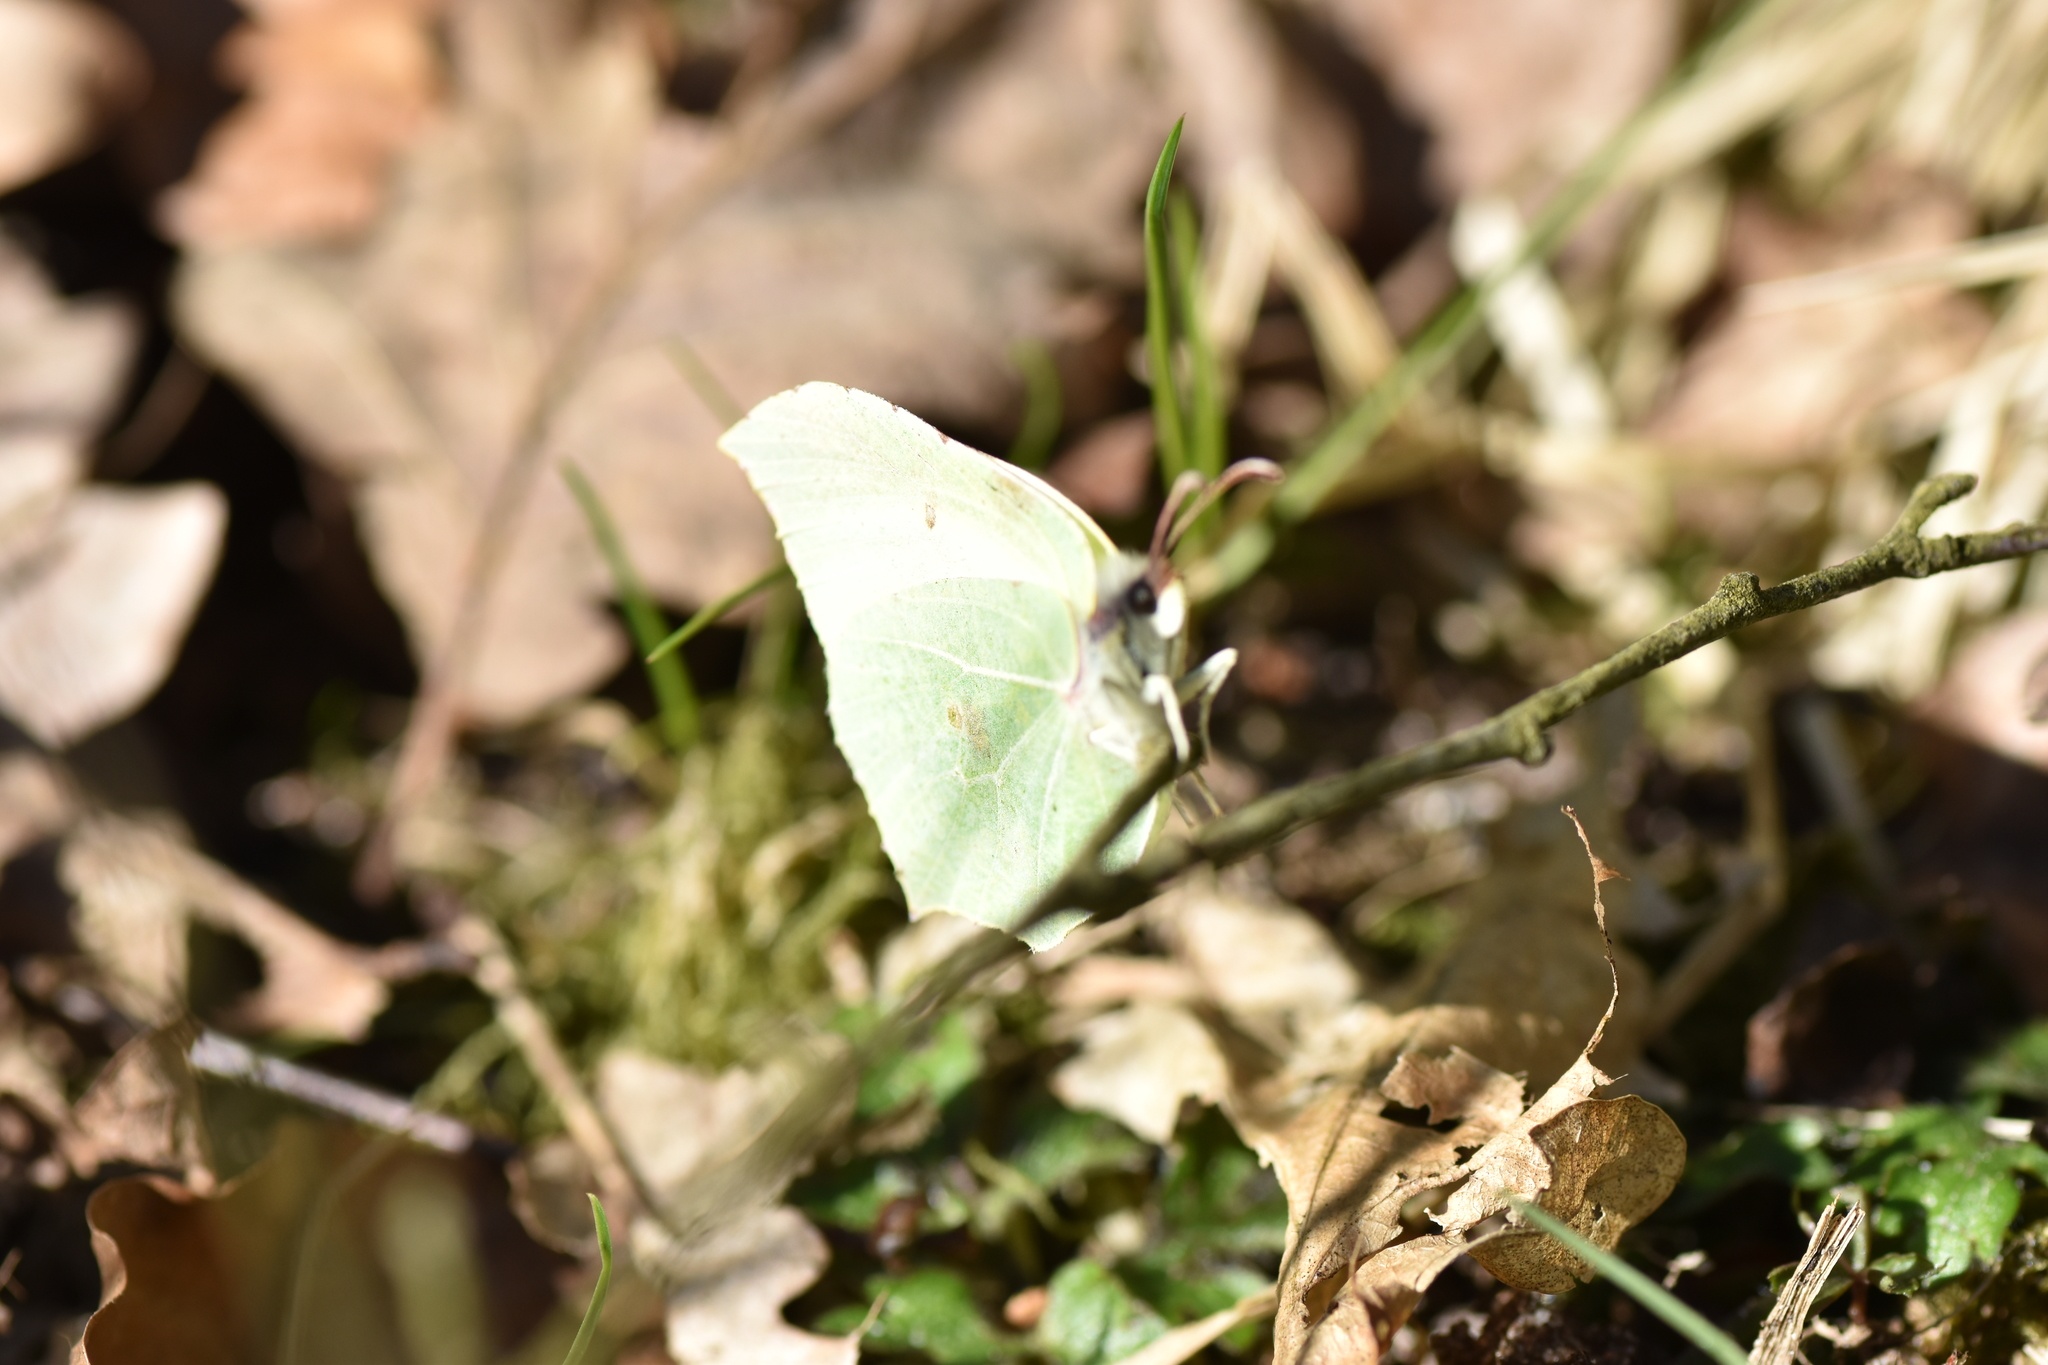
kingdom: Animalia
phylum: Arthropoda
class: Insecta
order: Lepidoptera
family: Pieridae
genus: Gonepteryx
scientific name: Gonepteryx rhamni
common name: Brimstone
